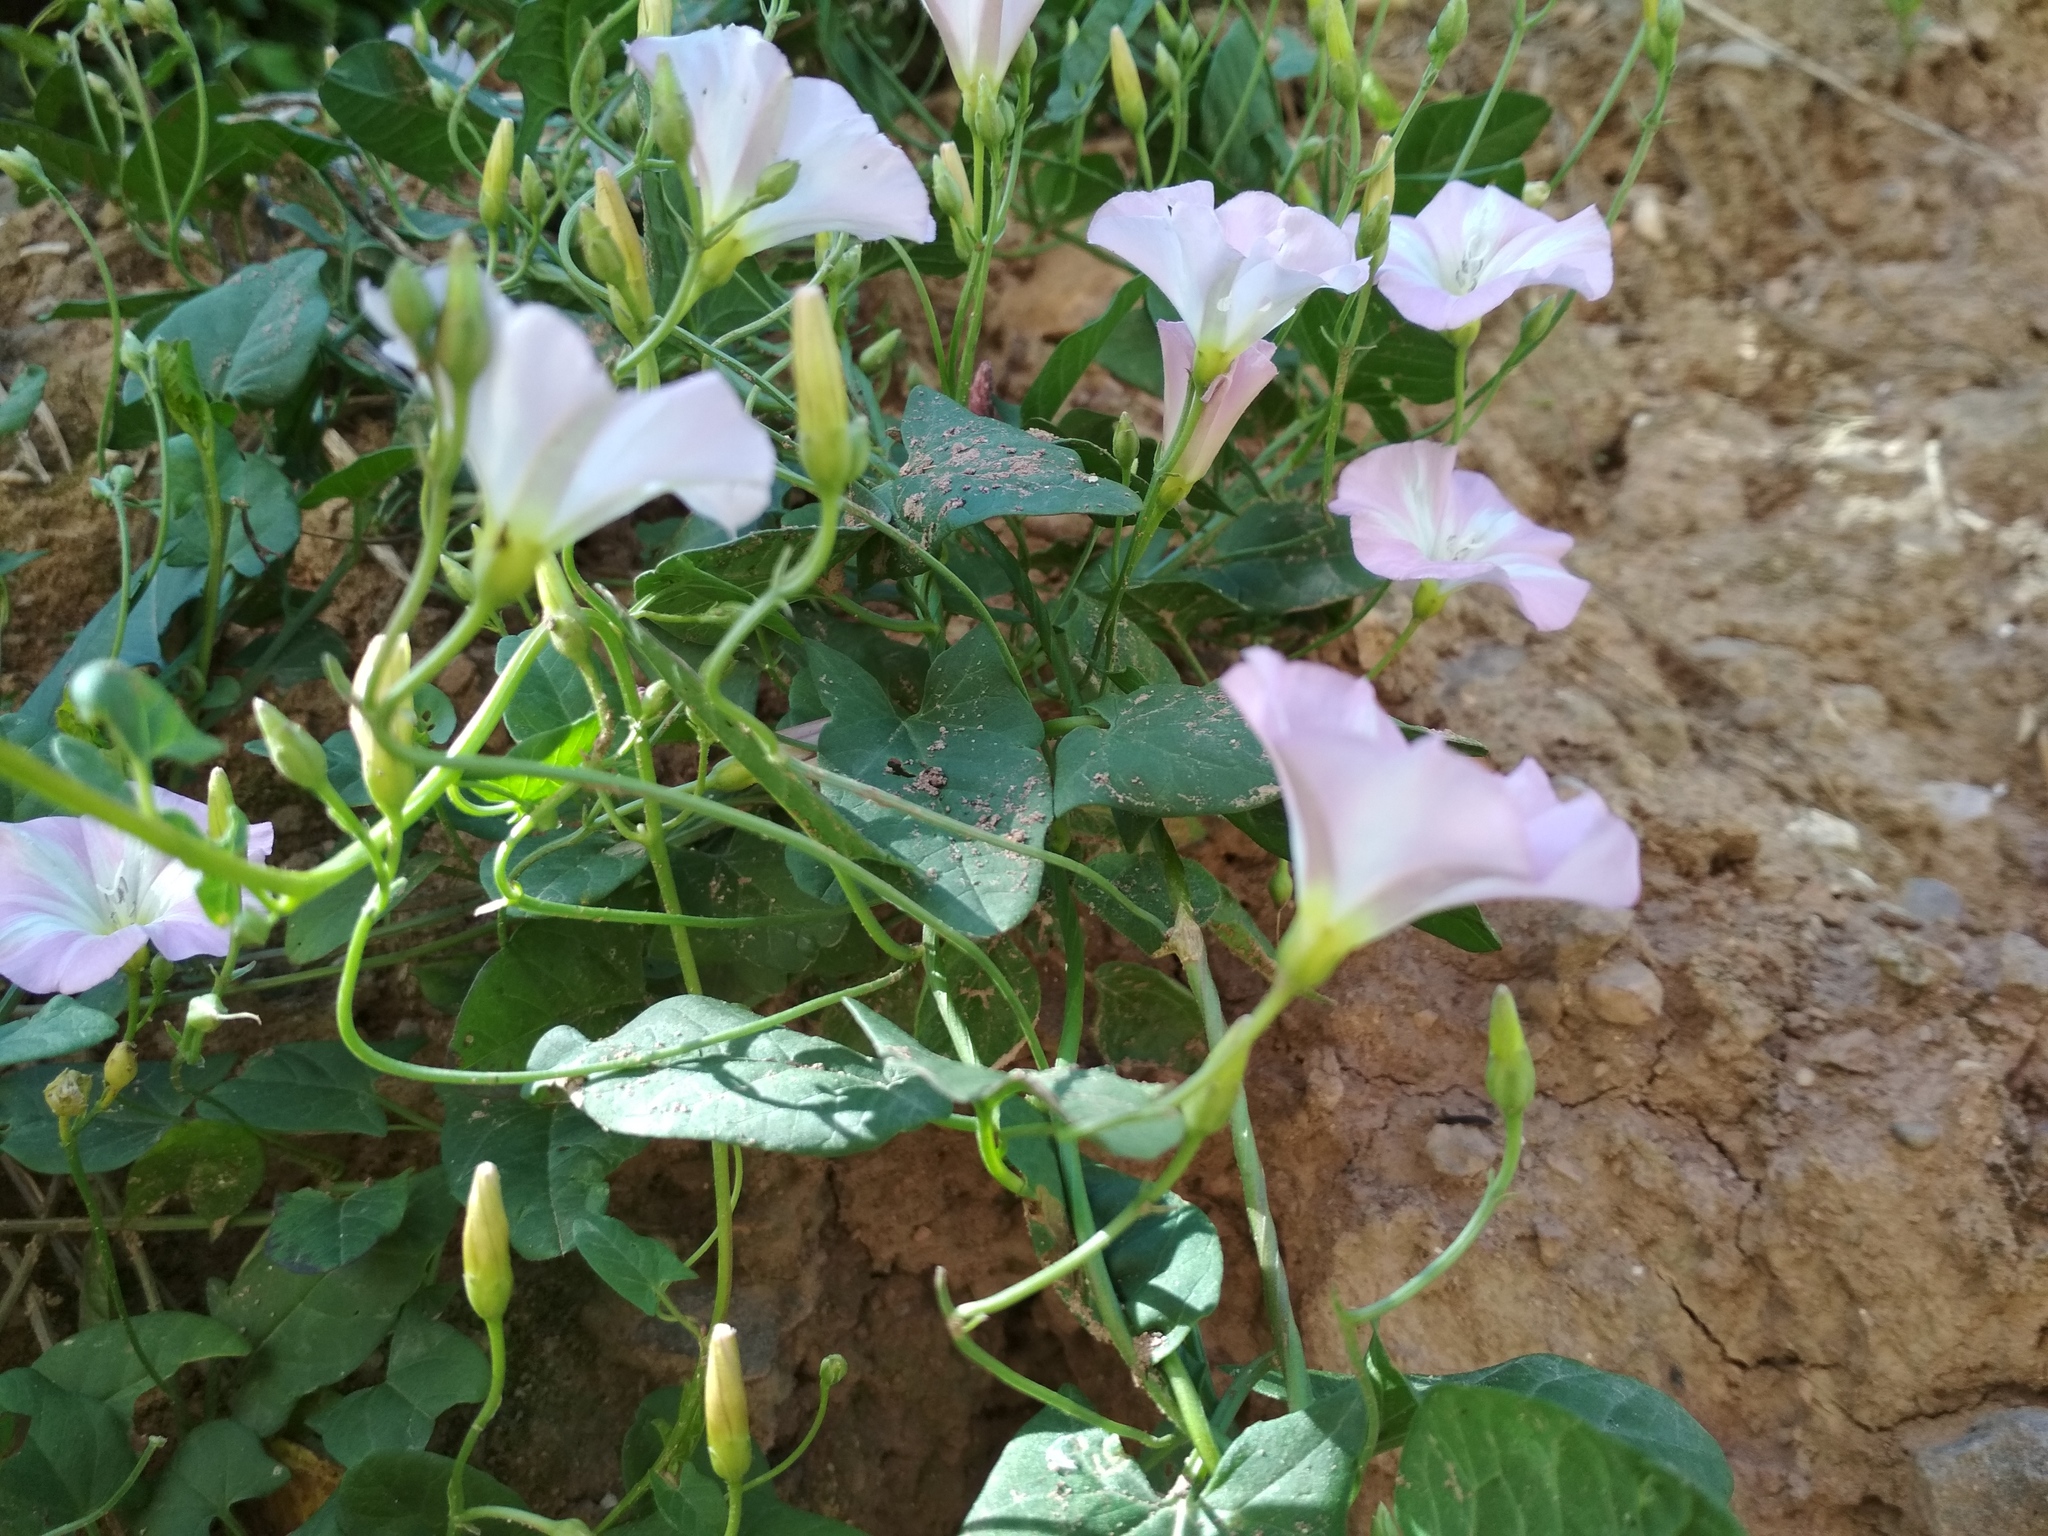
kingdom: Plantae
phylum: Tracheophyta
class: Magnoliopsida
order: Solanales
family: Convolvulaceae
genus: Convolvulus
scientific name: Convolvulus arvensis
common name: Field bindweed
